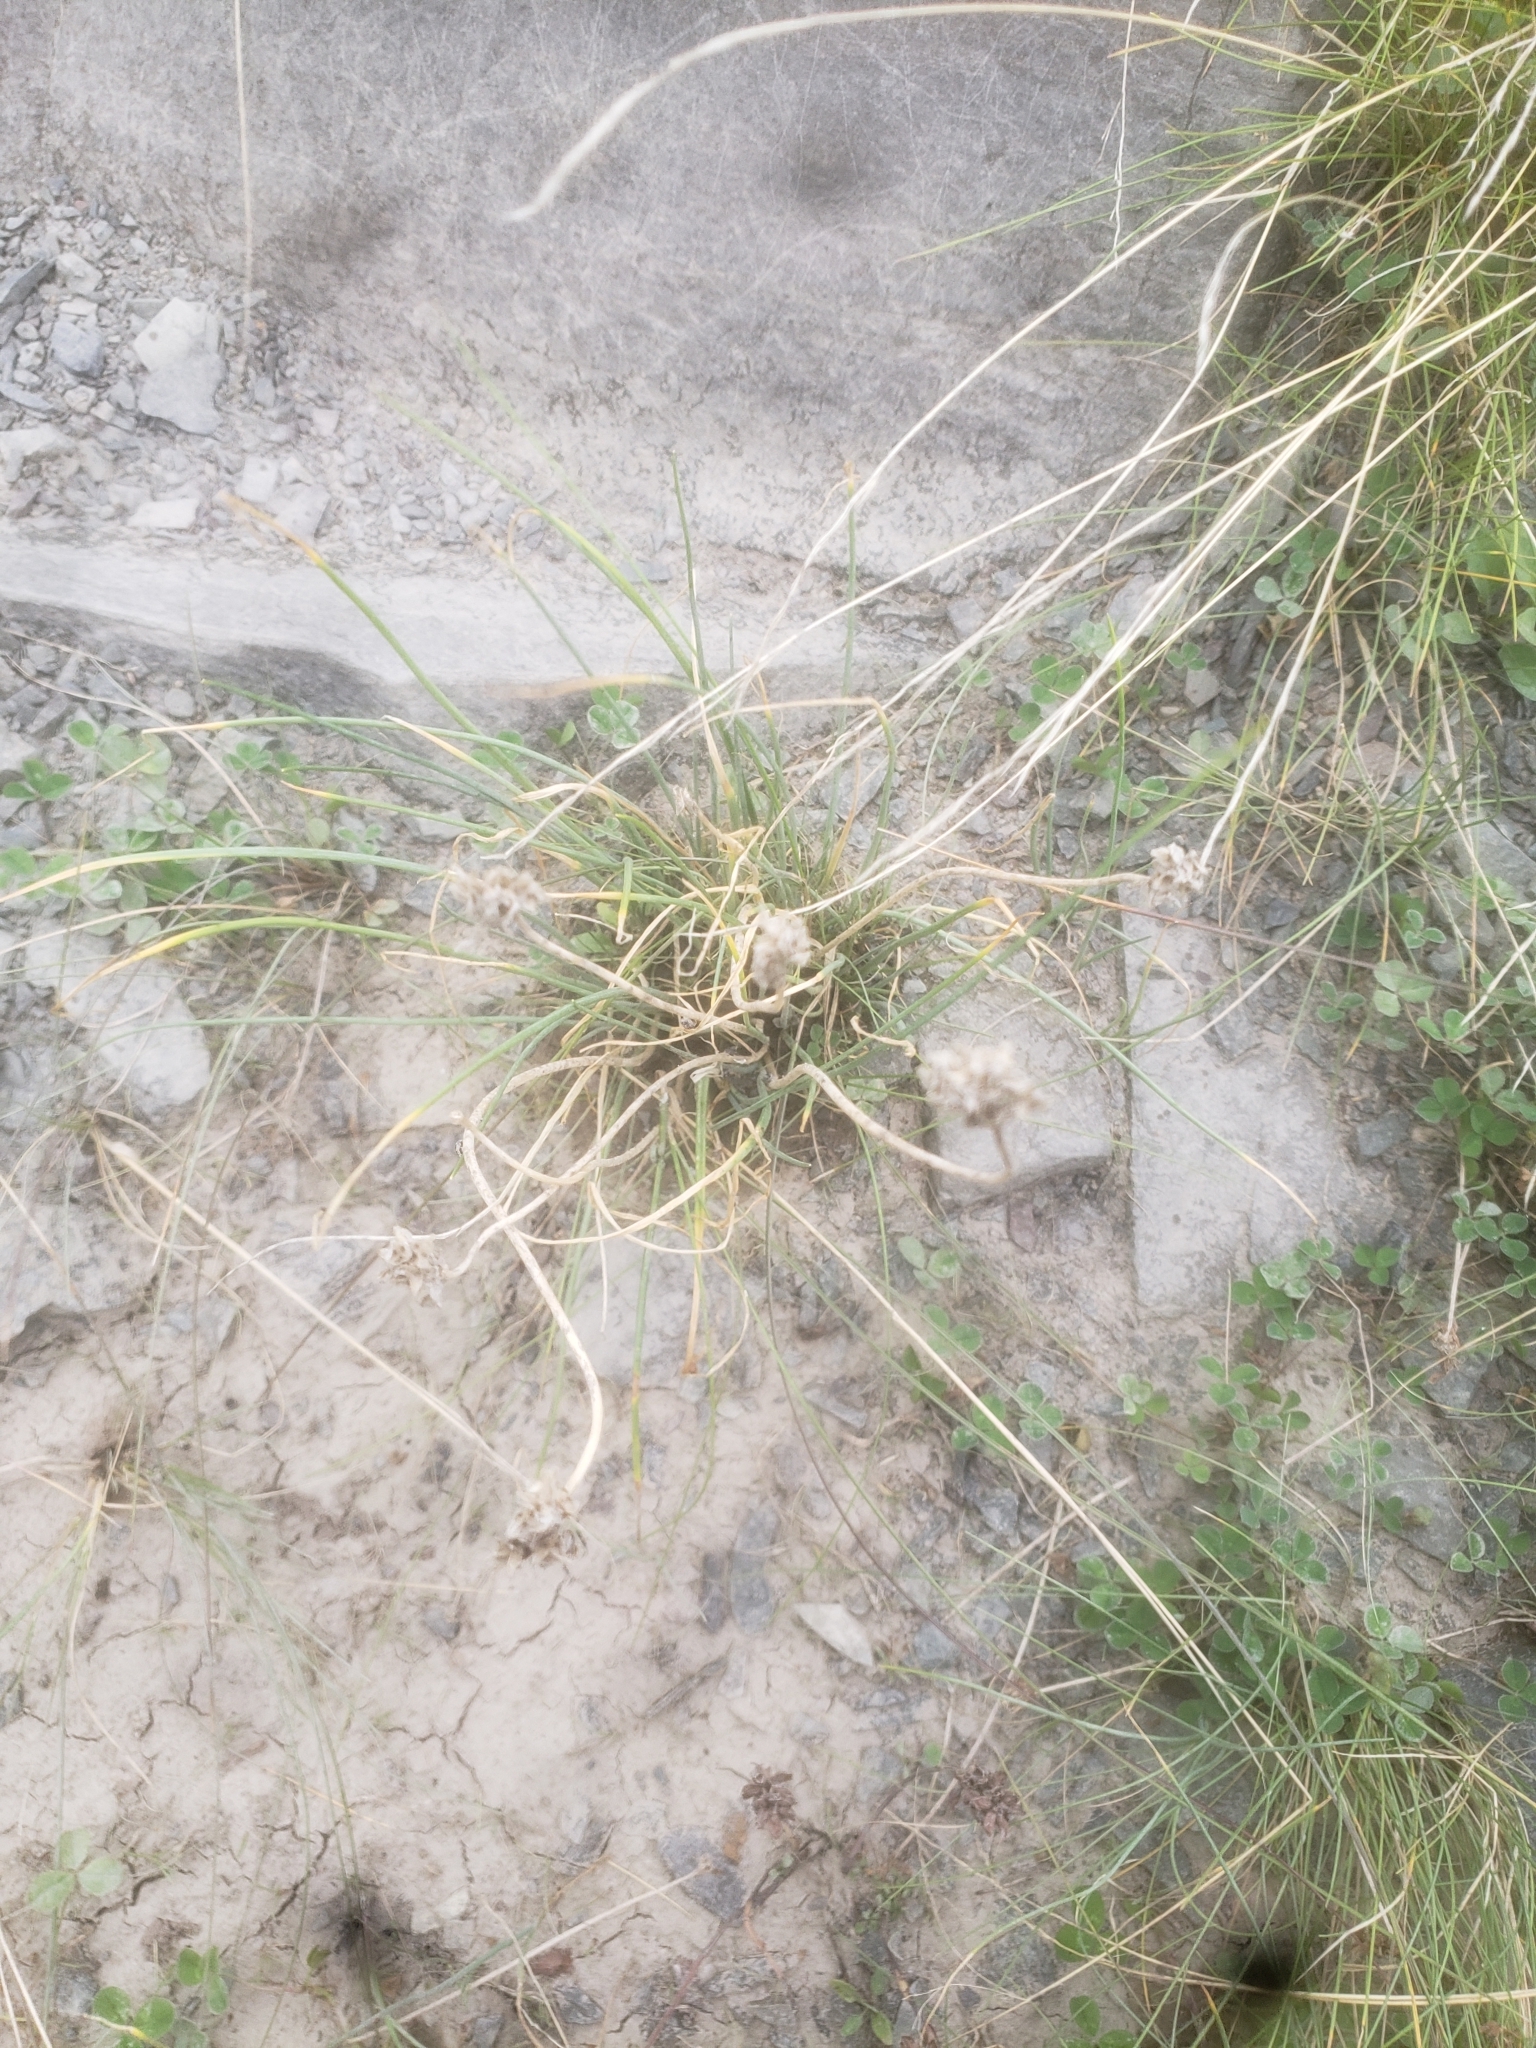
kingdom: Plantae
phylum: Tracheophyta
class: Liliopsida
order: Asparagales
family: Amaryllidaceae
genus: Allium
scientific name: Allium schoenoprasum
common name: Chives
